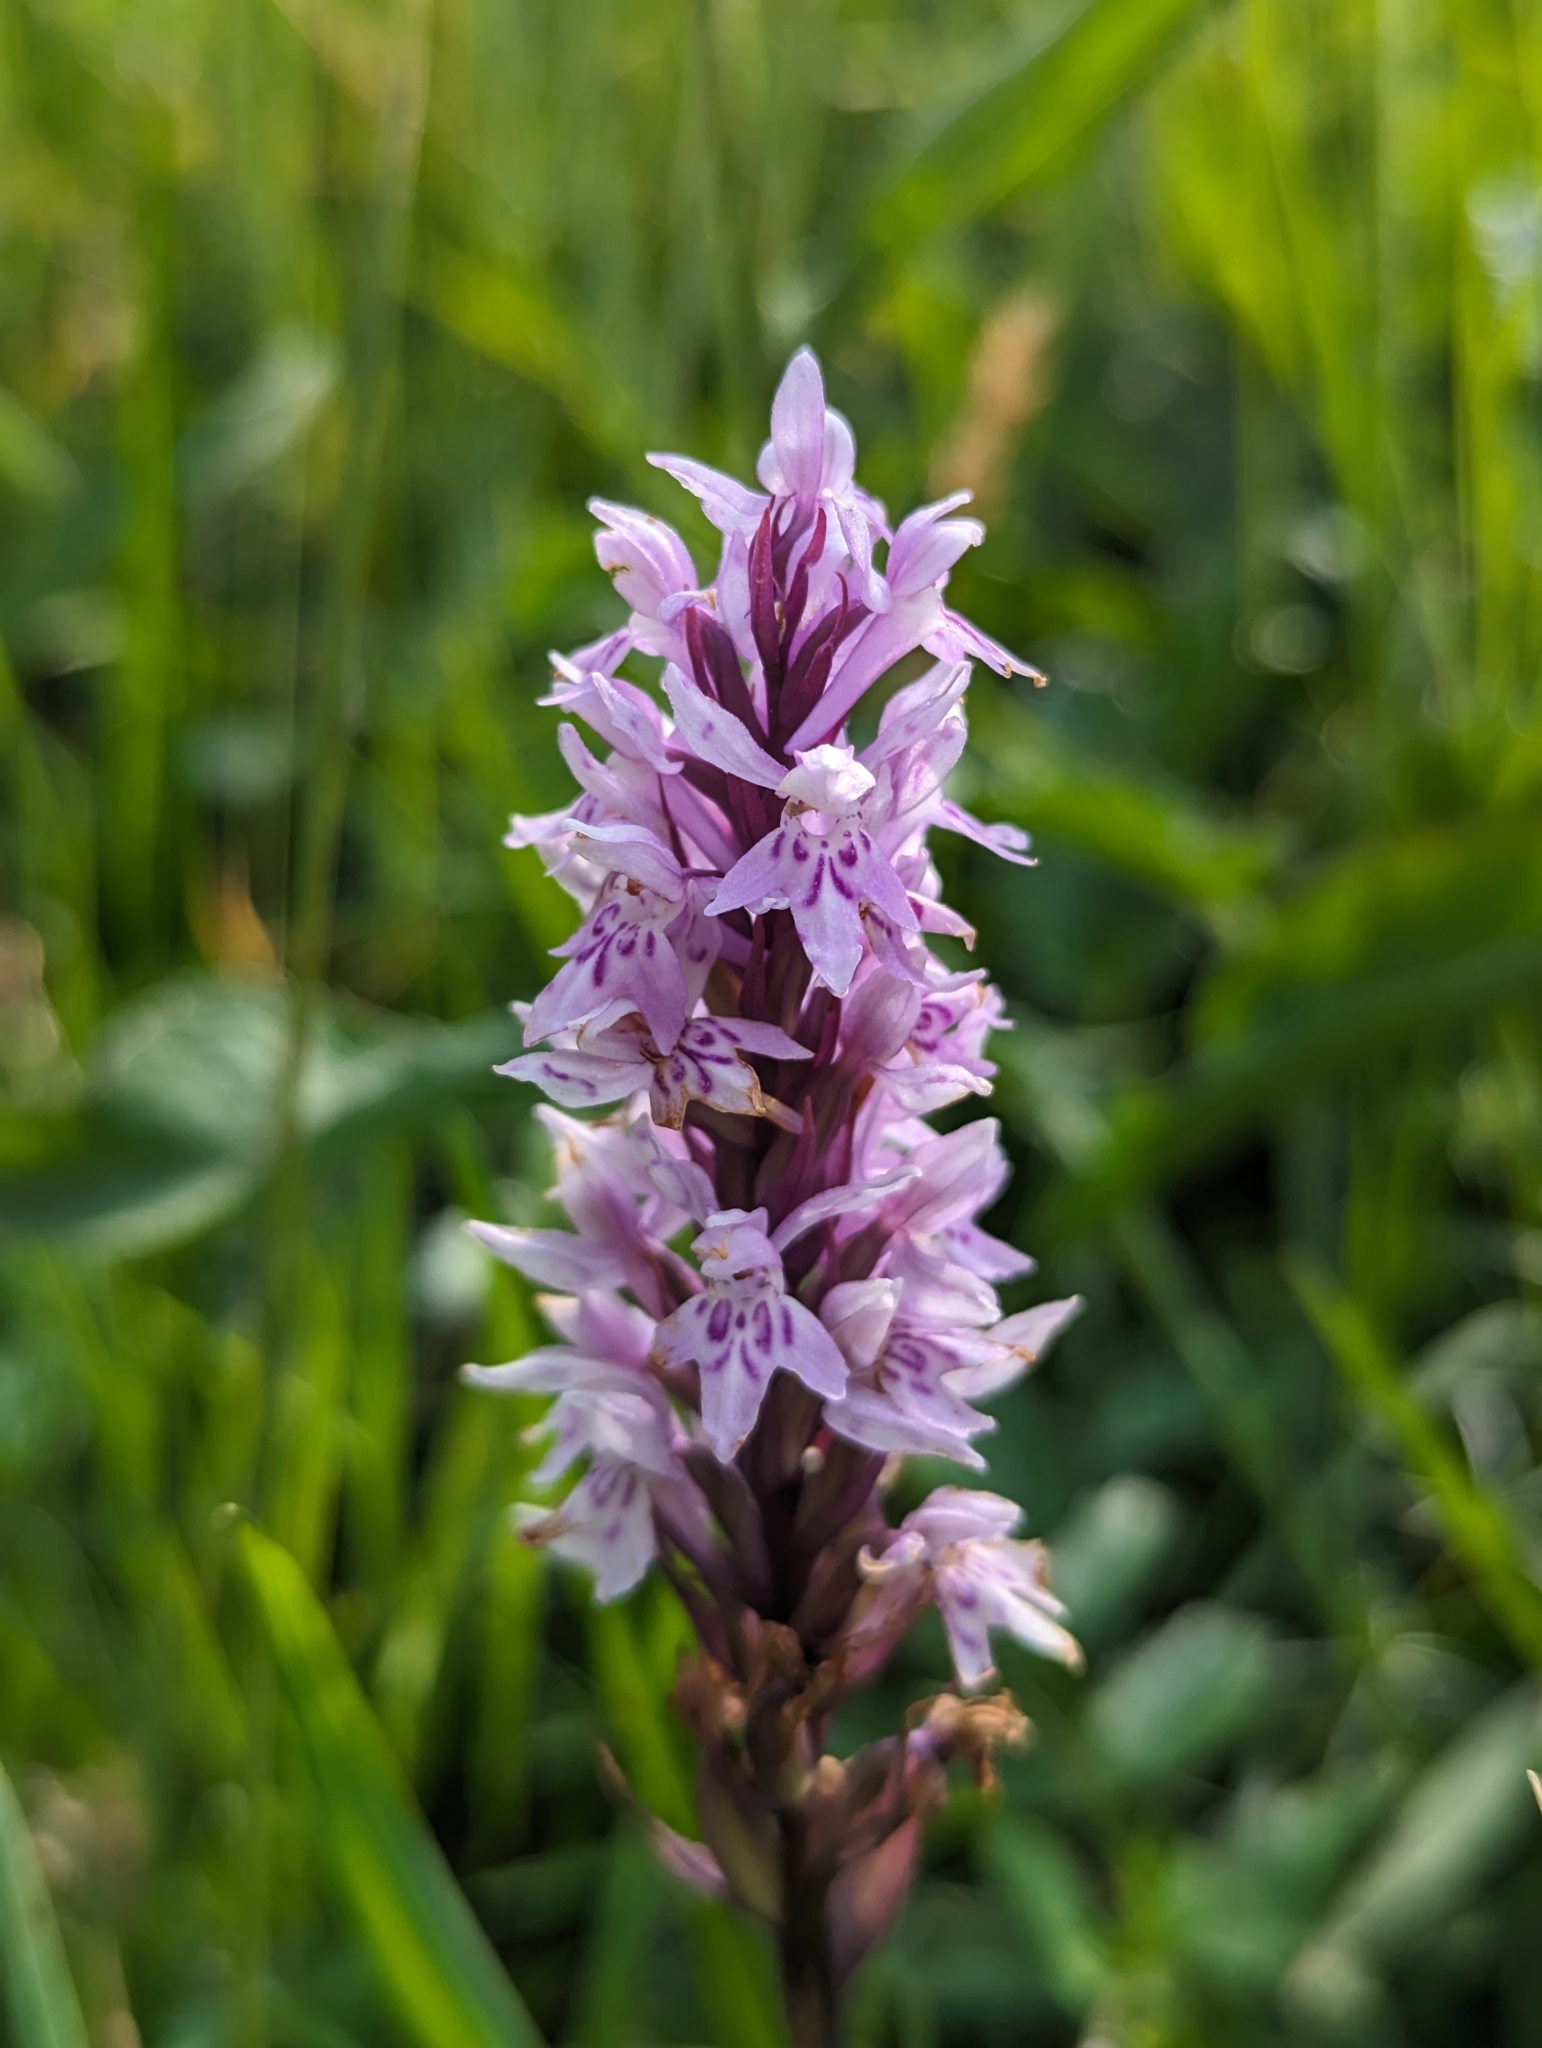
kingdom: Plantae
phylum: Tracheophyta
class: Liliopsida
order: Asparagales
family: Orchidaceae
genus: Dactylorhiza
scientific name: Dactylorhiza maculata
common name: Heath spotted-orchid
